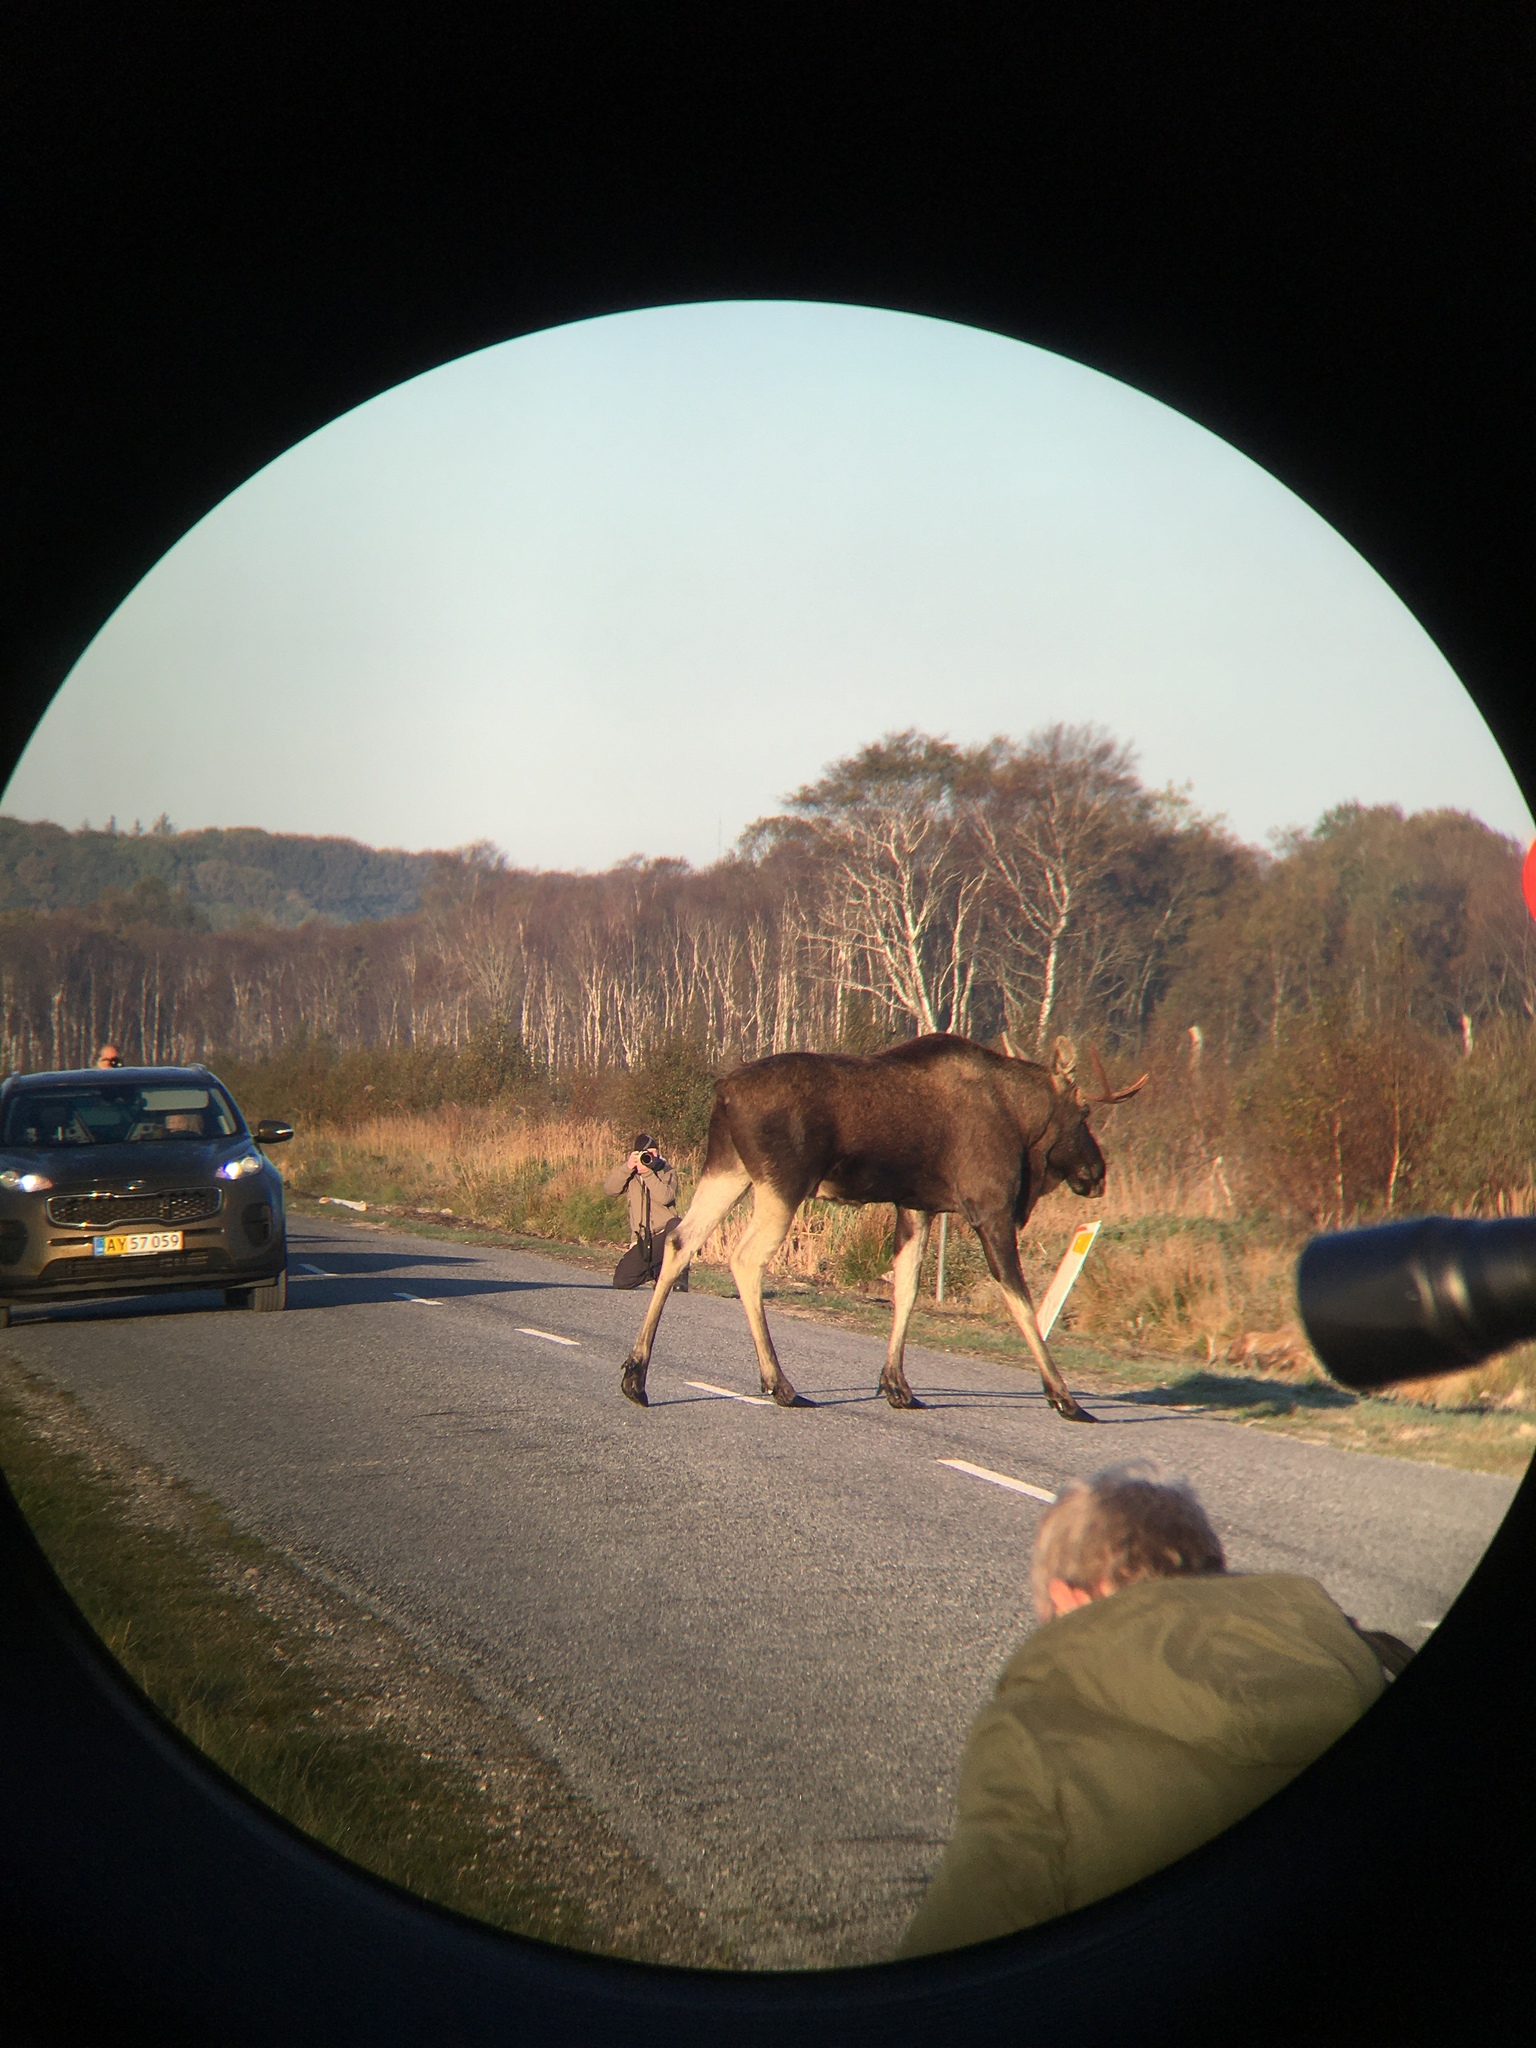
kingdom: Animalia
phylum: Chordata
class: Mammalia
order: Artiodactyla
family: Cervidae
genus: Alces
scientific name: Alces alces
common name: Moose
